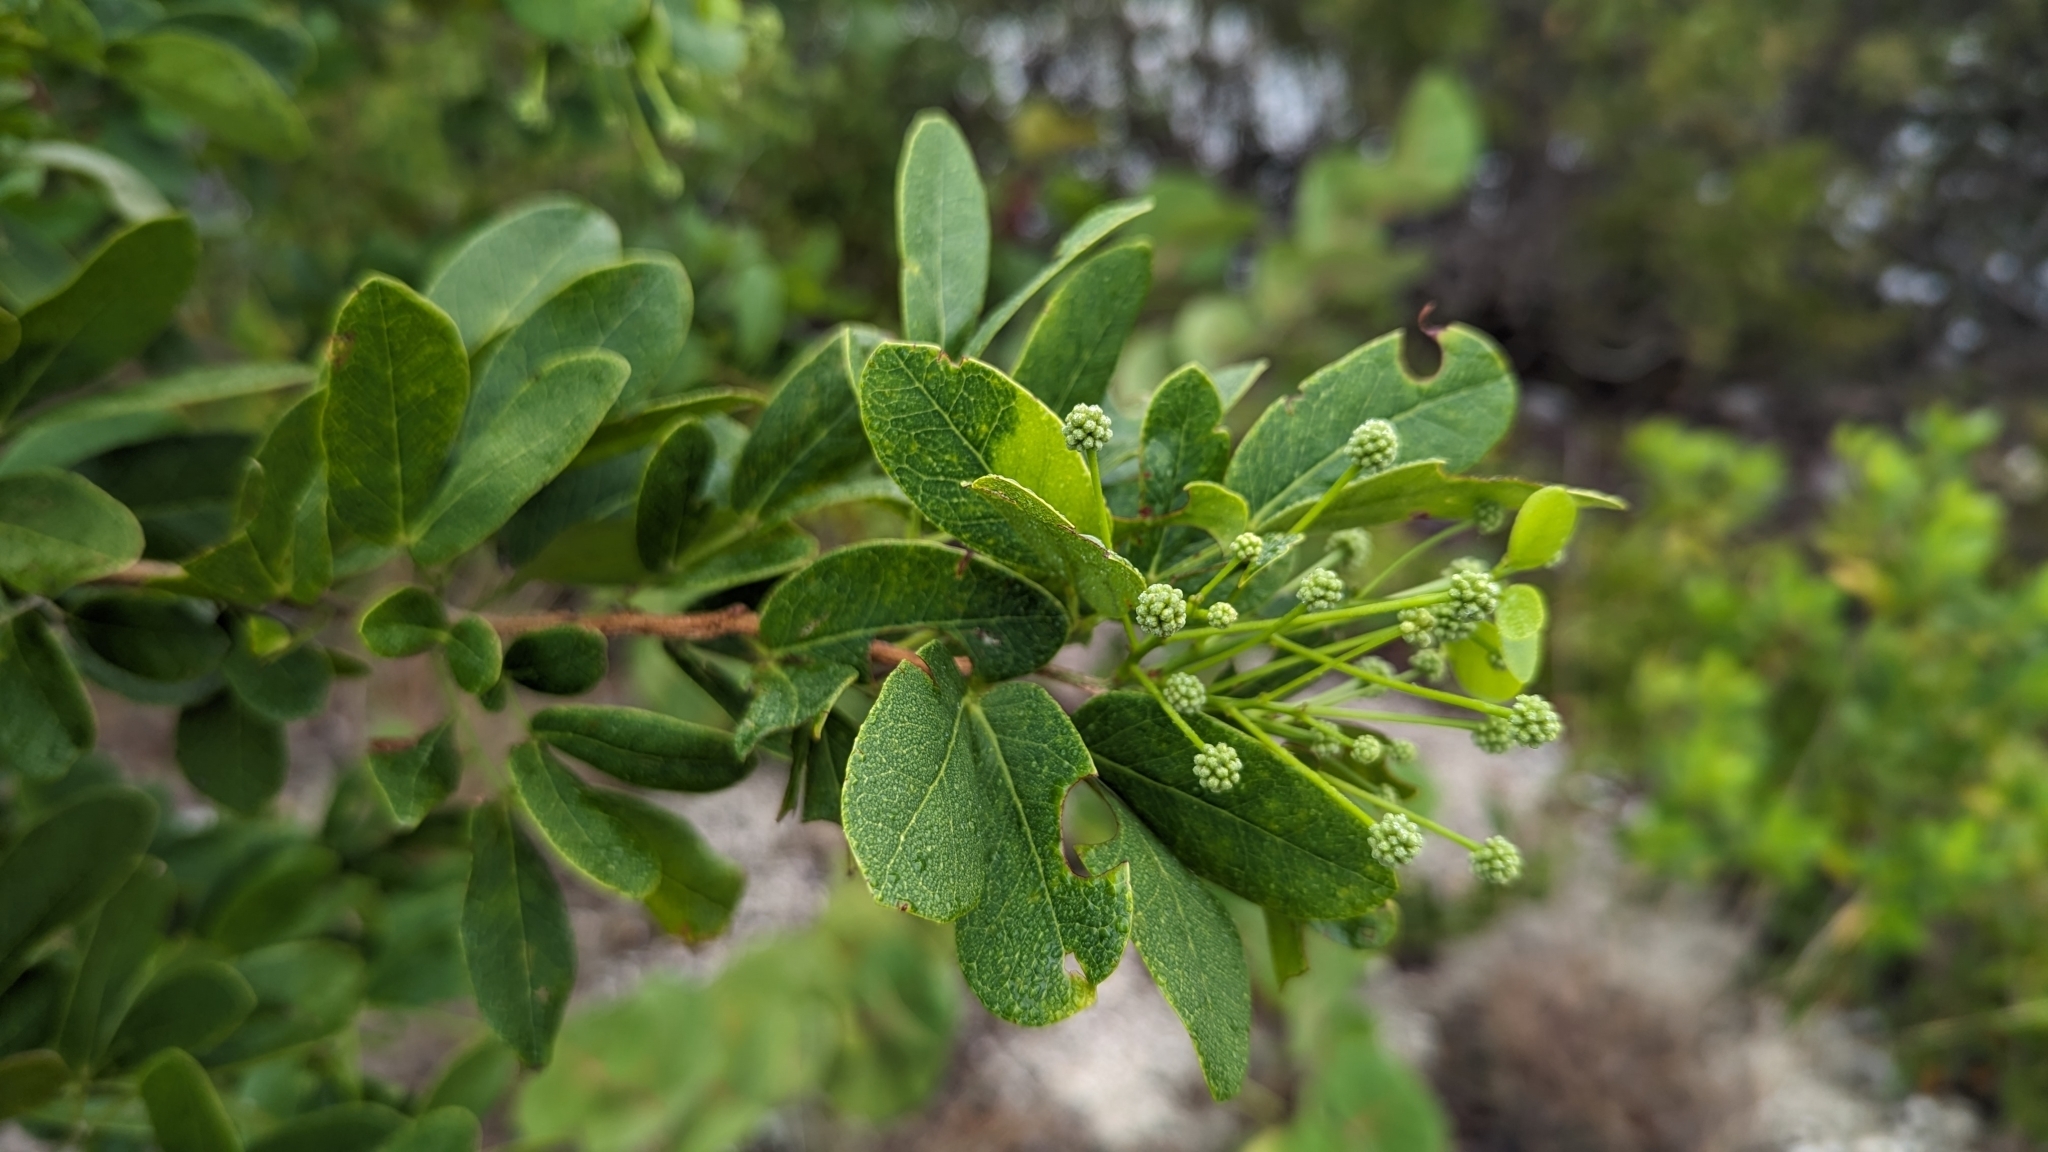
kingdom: Plantae
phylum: Tracheophyta
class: Magnoliopsida
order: Fabales
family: Fabaceae
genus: Pithecellobium
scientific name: Pithecellobium keyense
